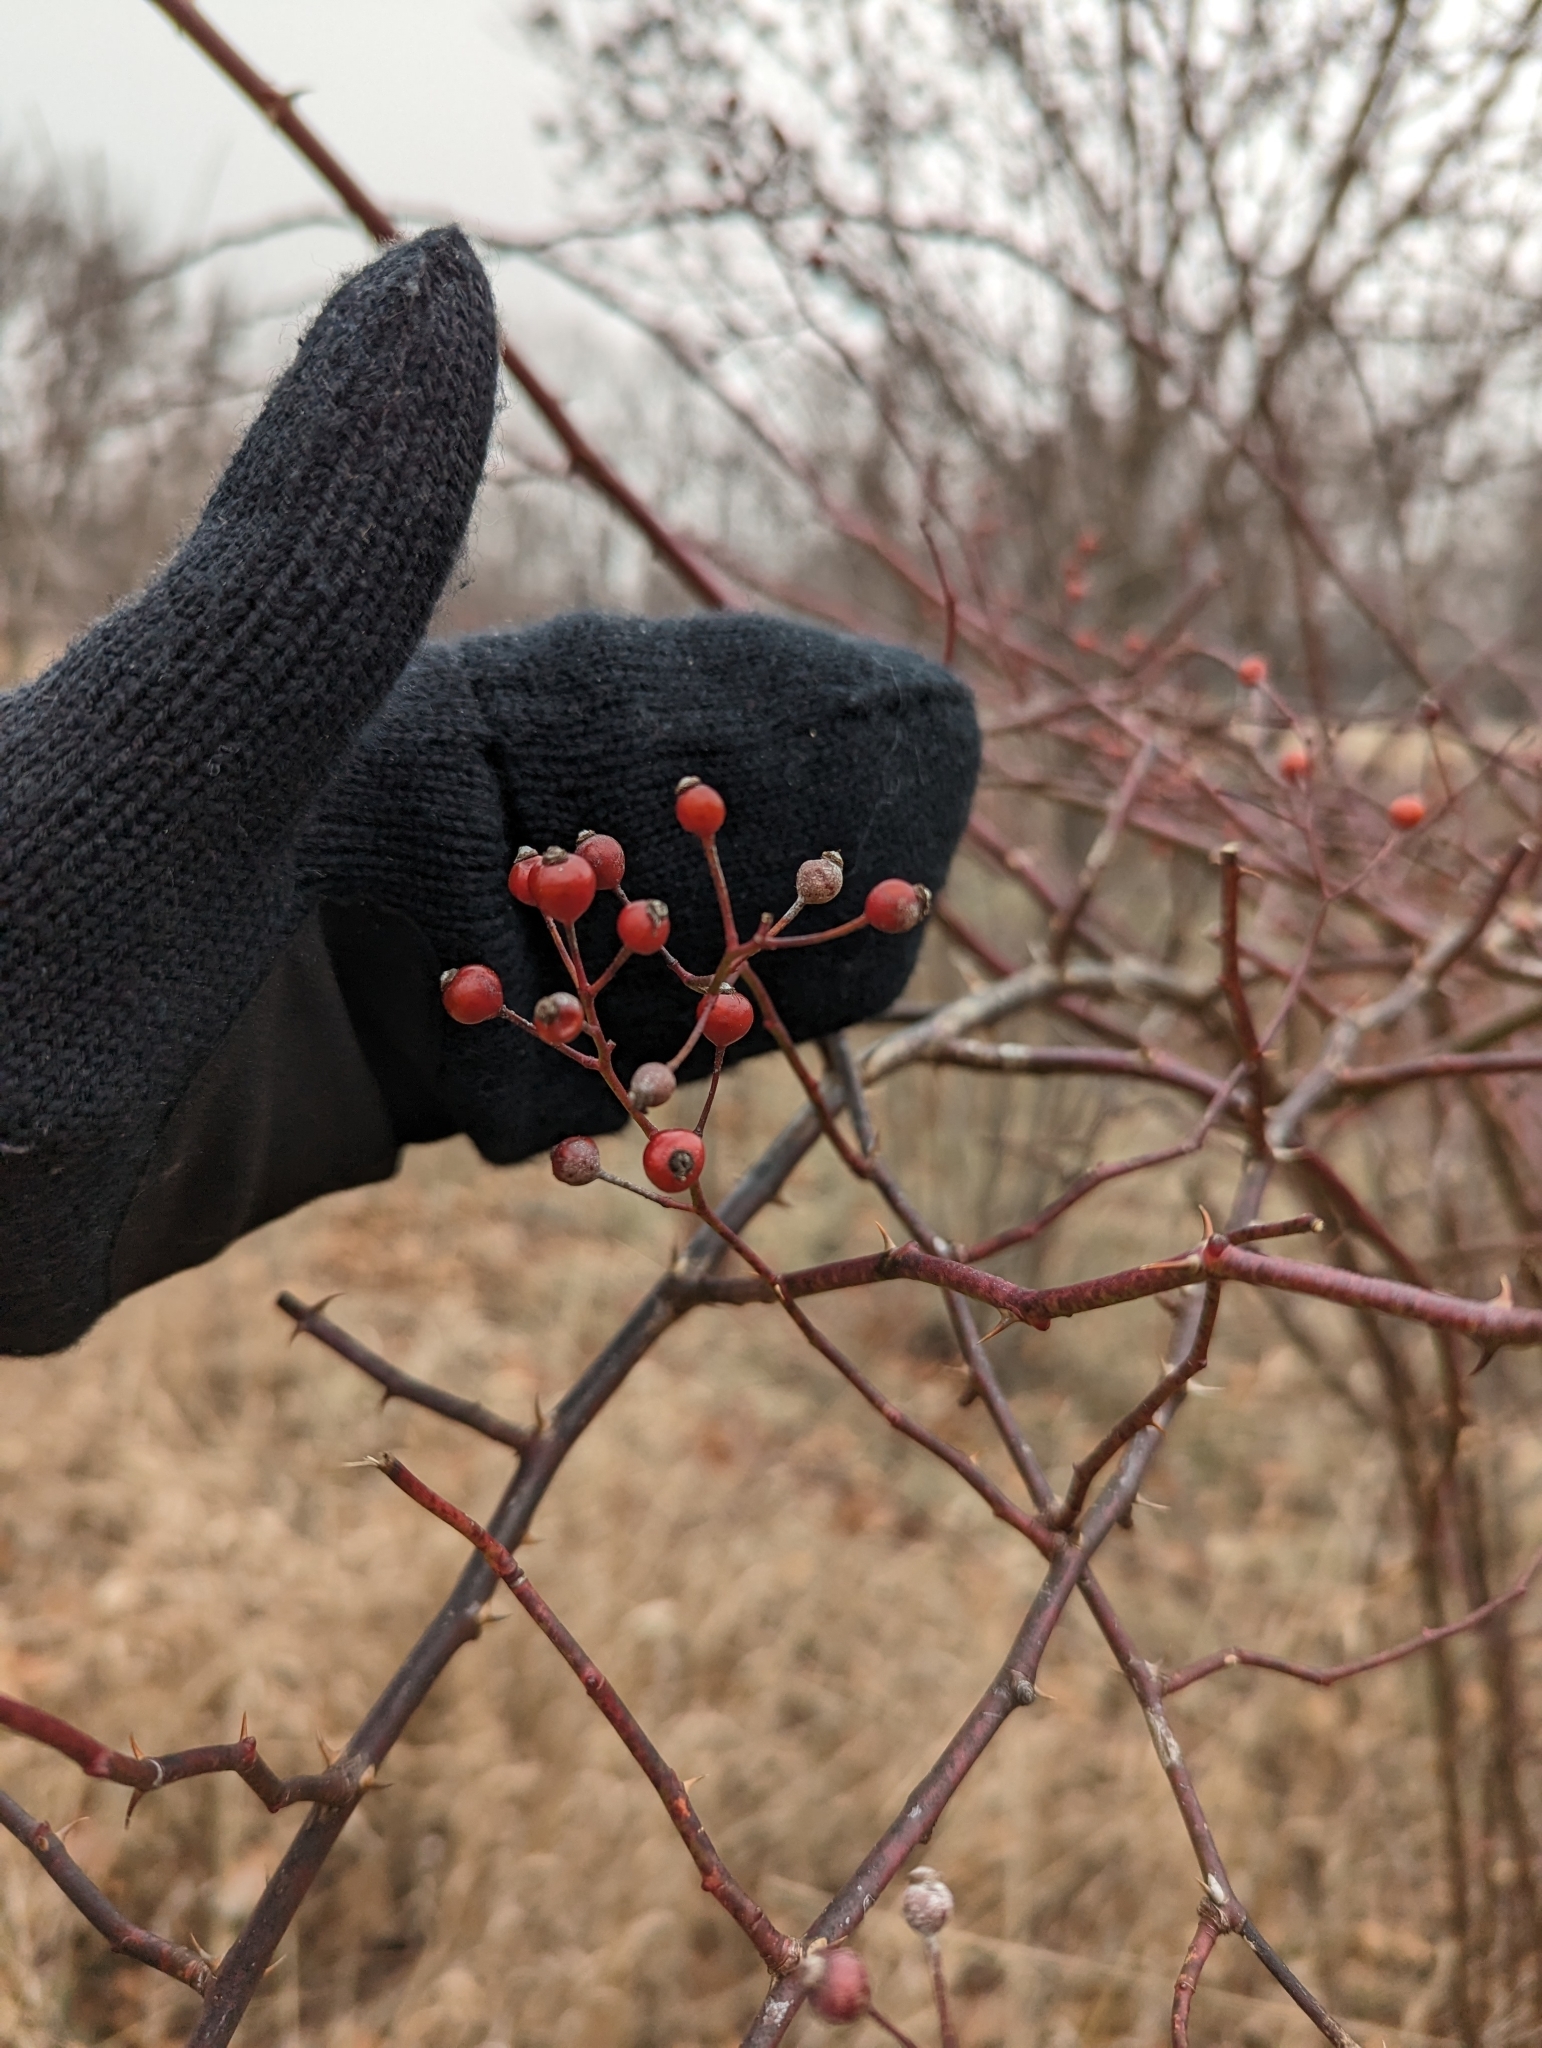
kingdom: Plantae
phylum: Tracheophyta
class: Magnoliopsida
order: Rosales
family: Rosaceae
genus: Rosa
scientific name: Rosa multiflora
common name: Multiflora rose
